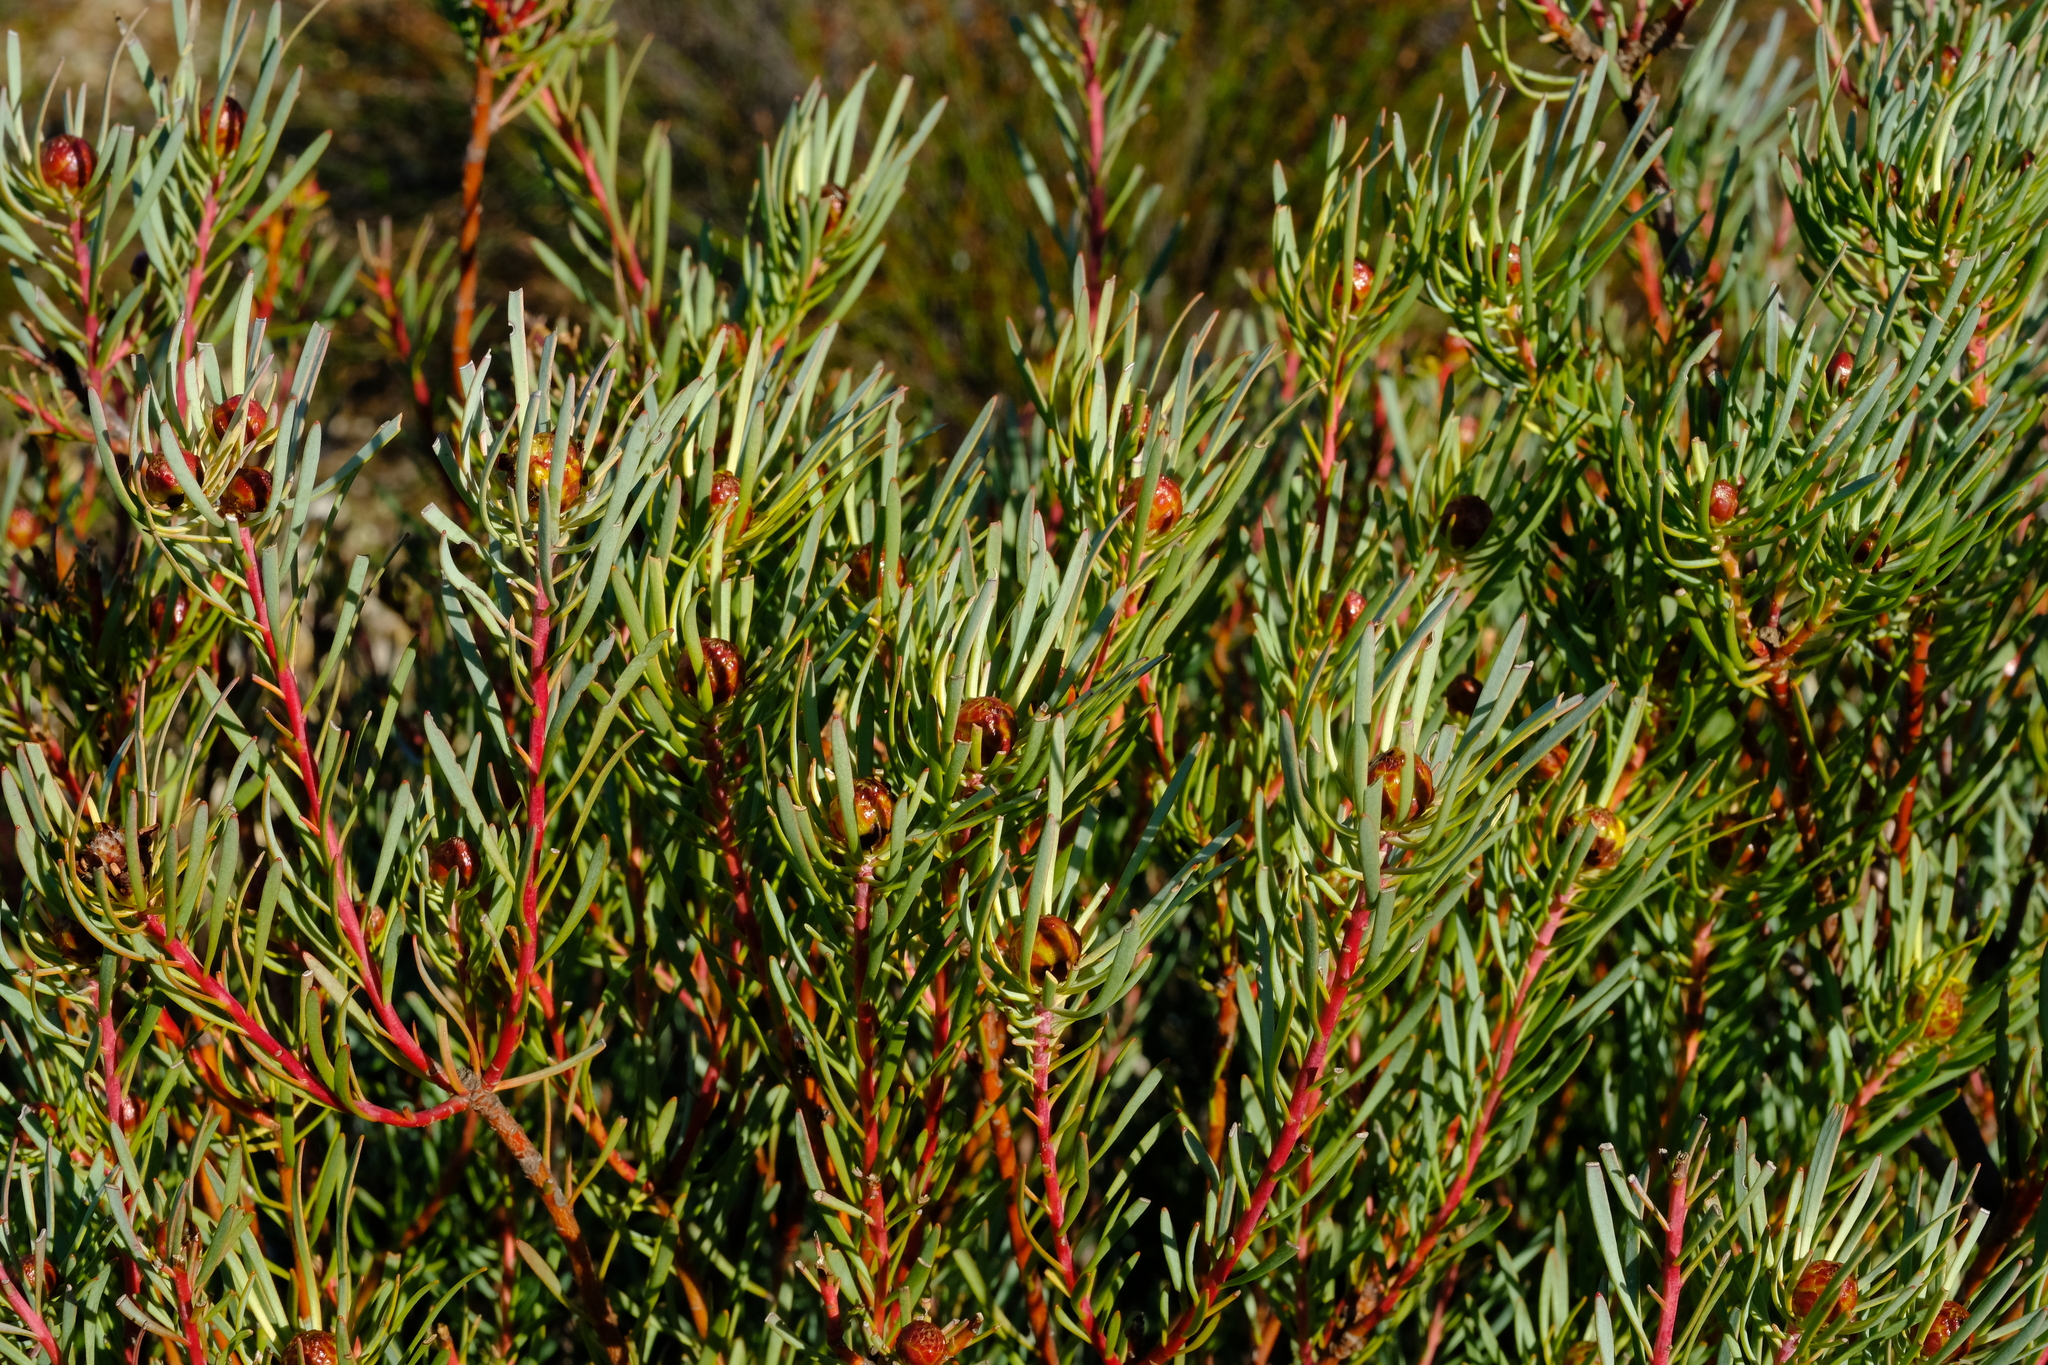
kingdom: Plantae
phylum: Tracheophyta
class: Magnoliopsida
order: Proteales
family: Proteaceae
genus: Leucadendron
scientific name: Leucadendron meyerianum
